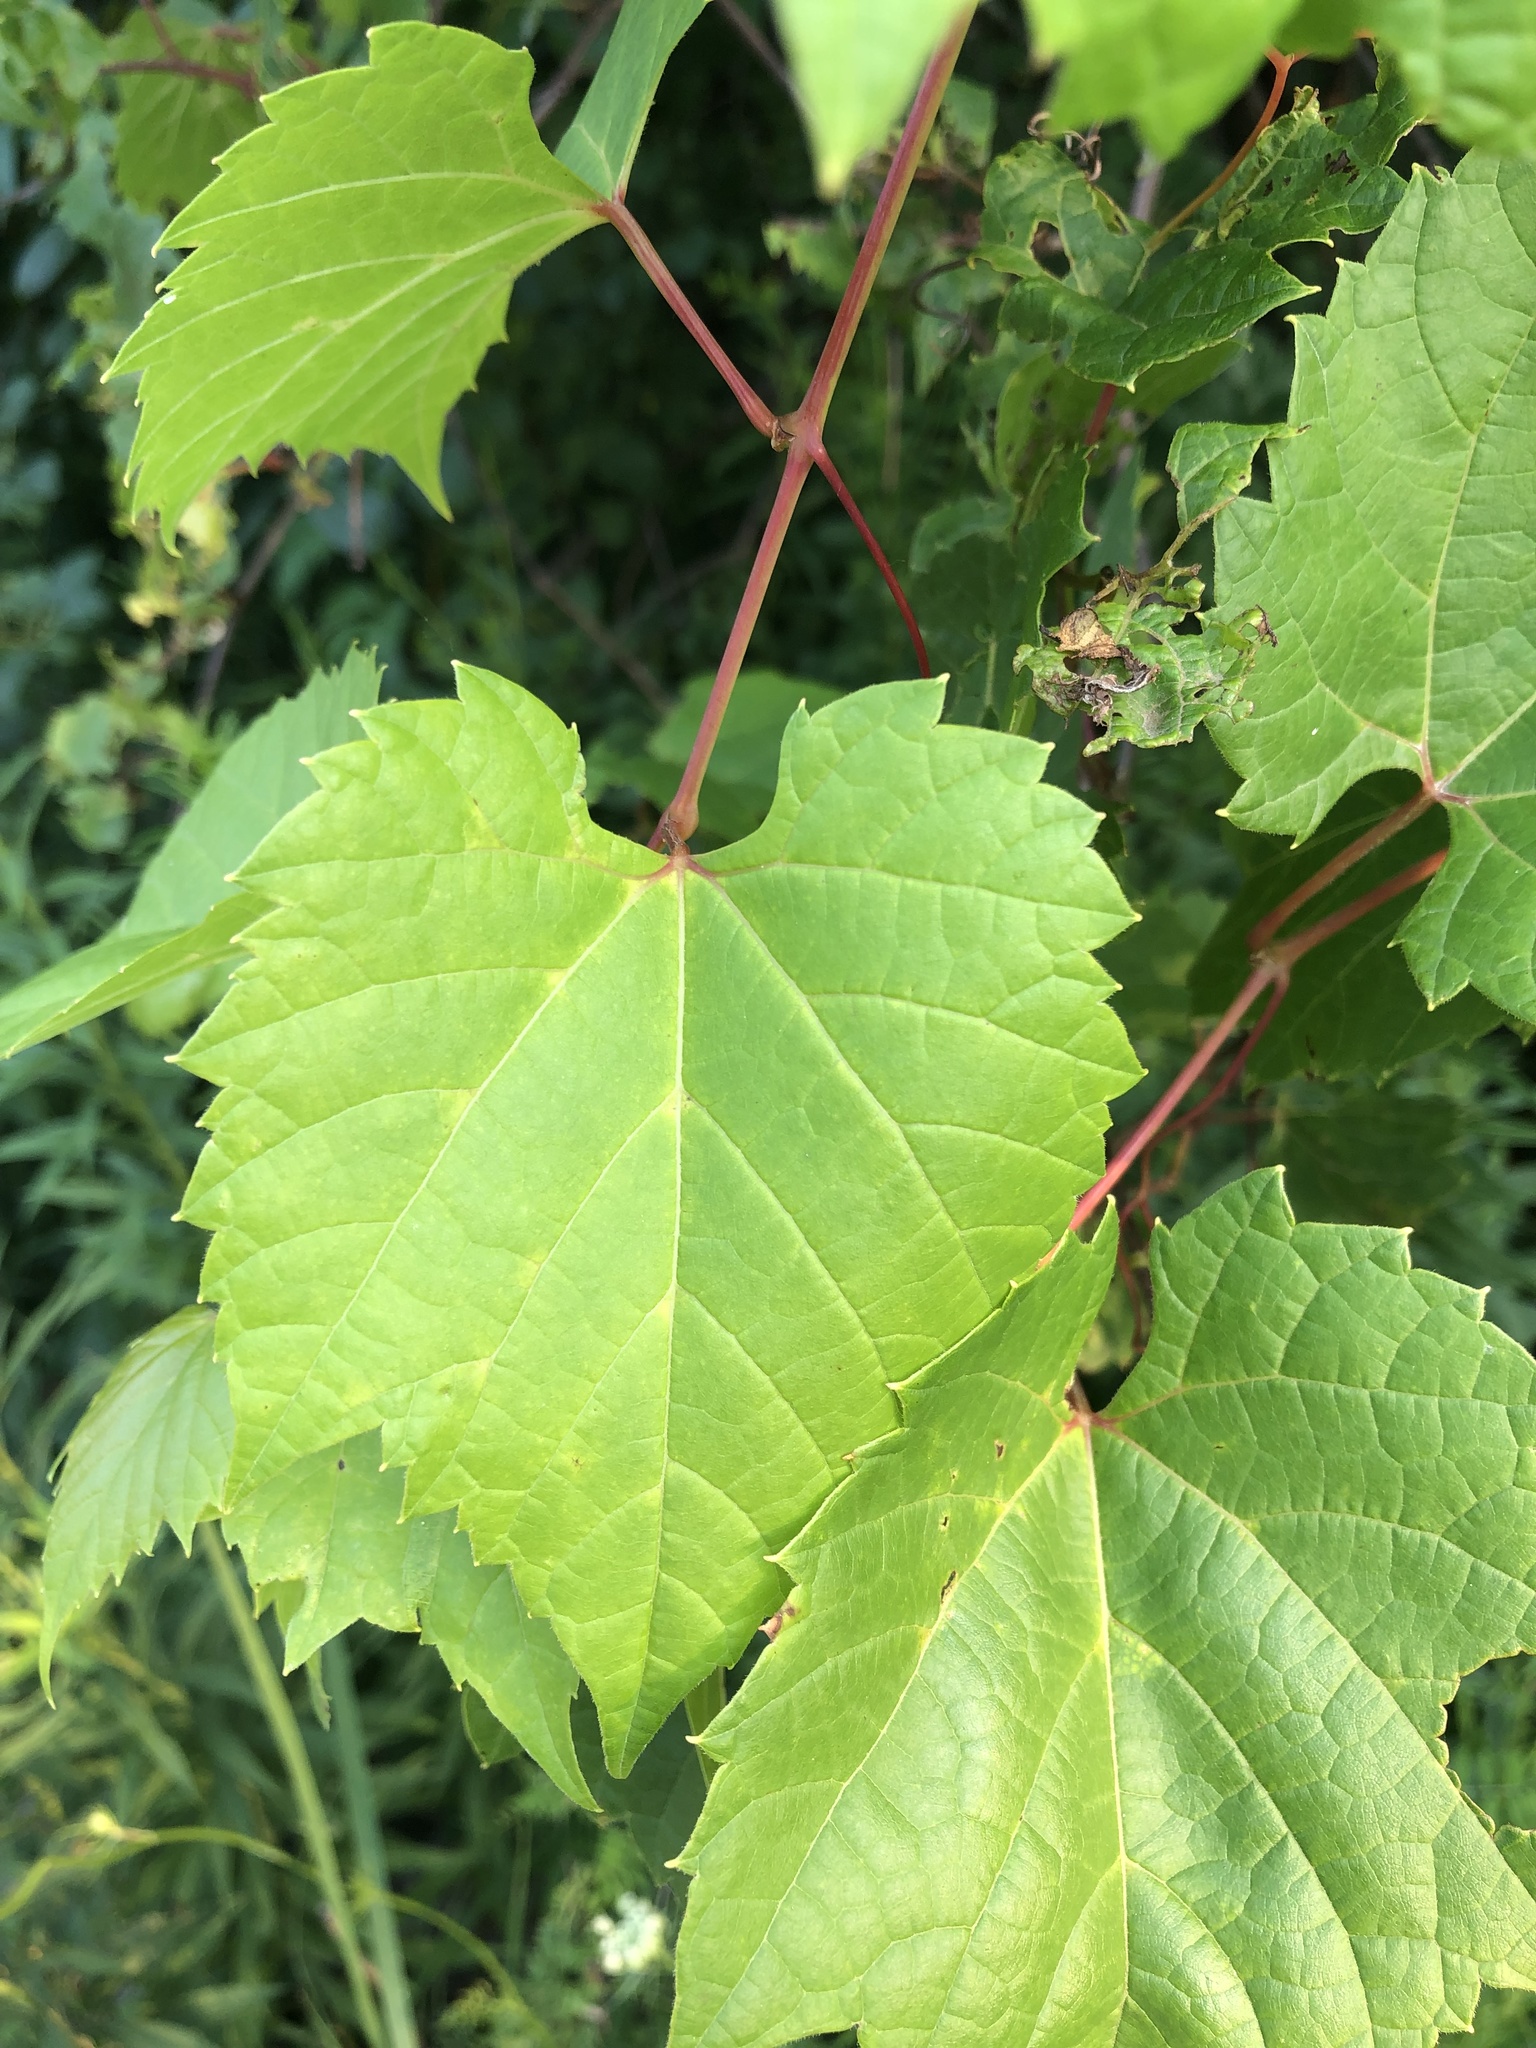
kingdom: Plantae
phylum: Tracheophyta
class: Magnoliopsida
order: Vitales
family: Vitaceae
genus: Vitis
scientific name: Vitis riparia
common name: Frost grape
